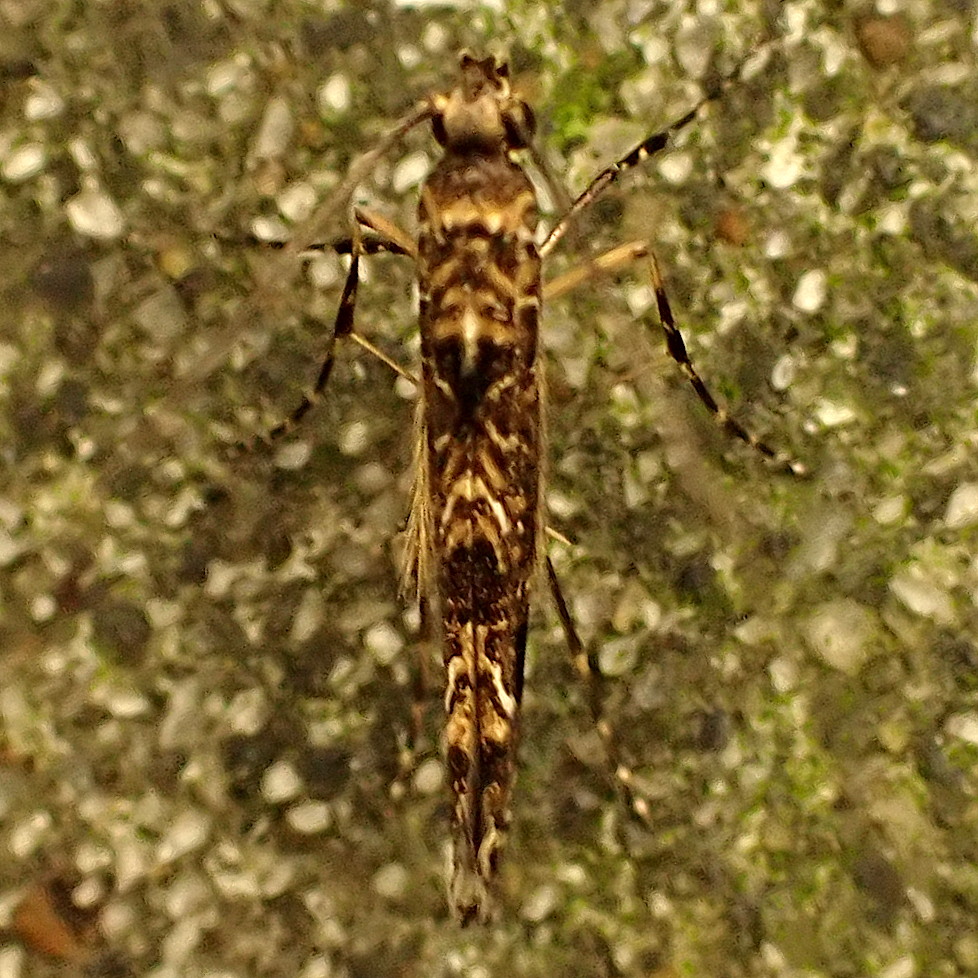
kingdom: Animalia
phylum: Arthropoda
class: Insecta
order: Lepidoptera
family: Gracillariidae
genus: Conopomorpha
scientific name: Conopomorpha cyanospila
